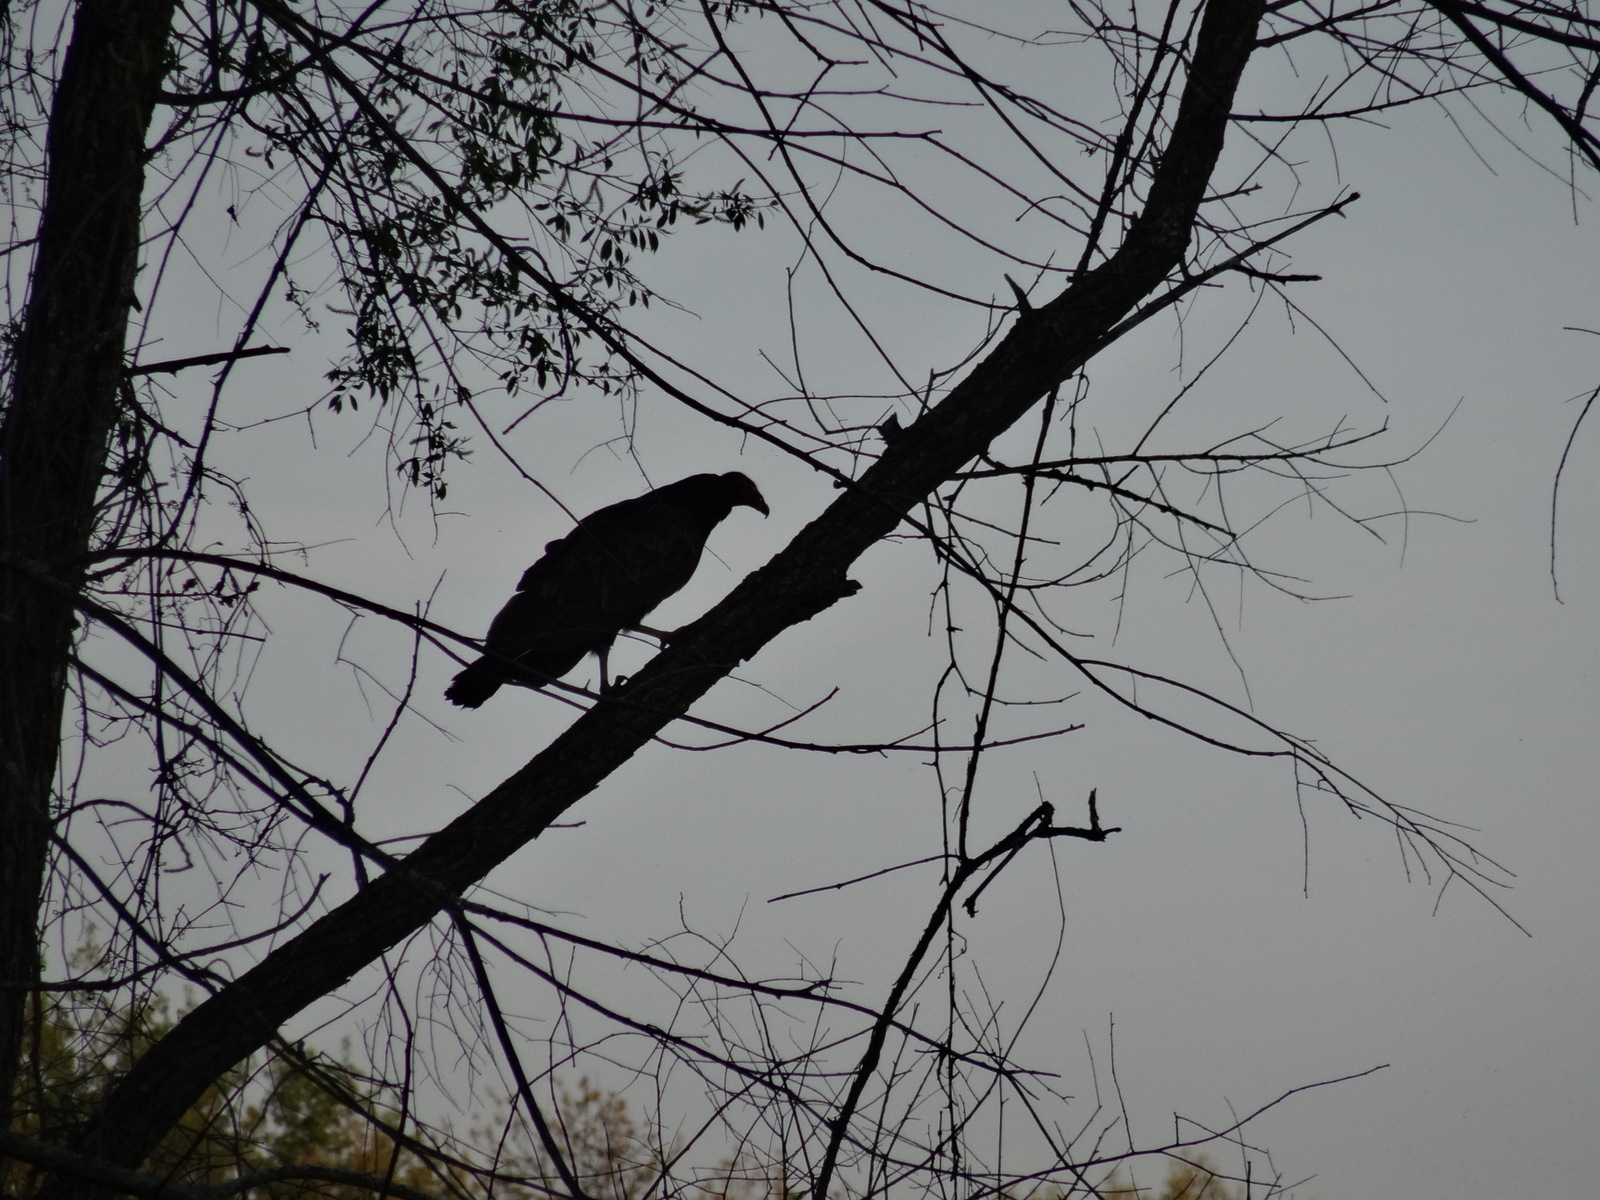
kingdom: Animalia
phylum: Chordata
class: Aves
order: Accipitriformes
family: Cathartidae
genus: Cathartes
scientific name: Cathartes aura
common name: Turkey vulture
